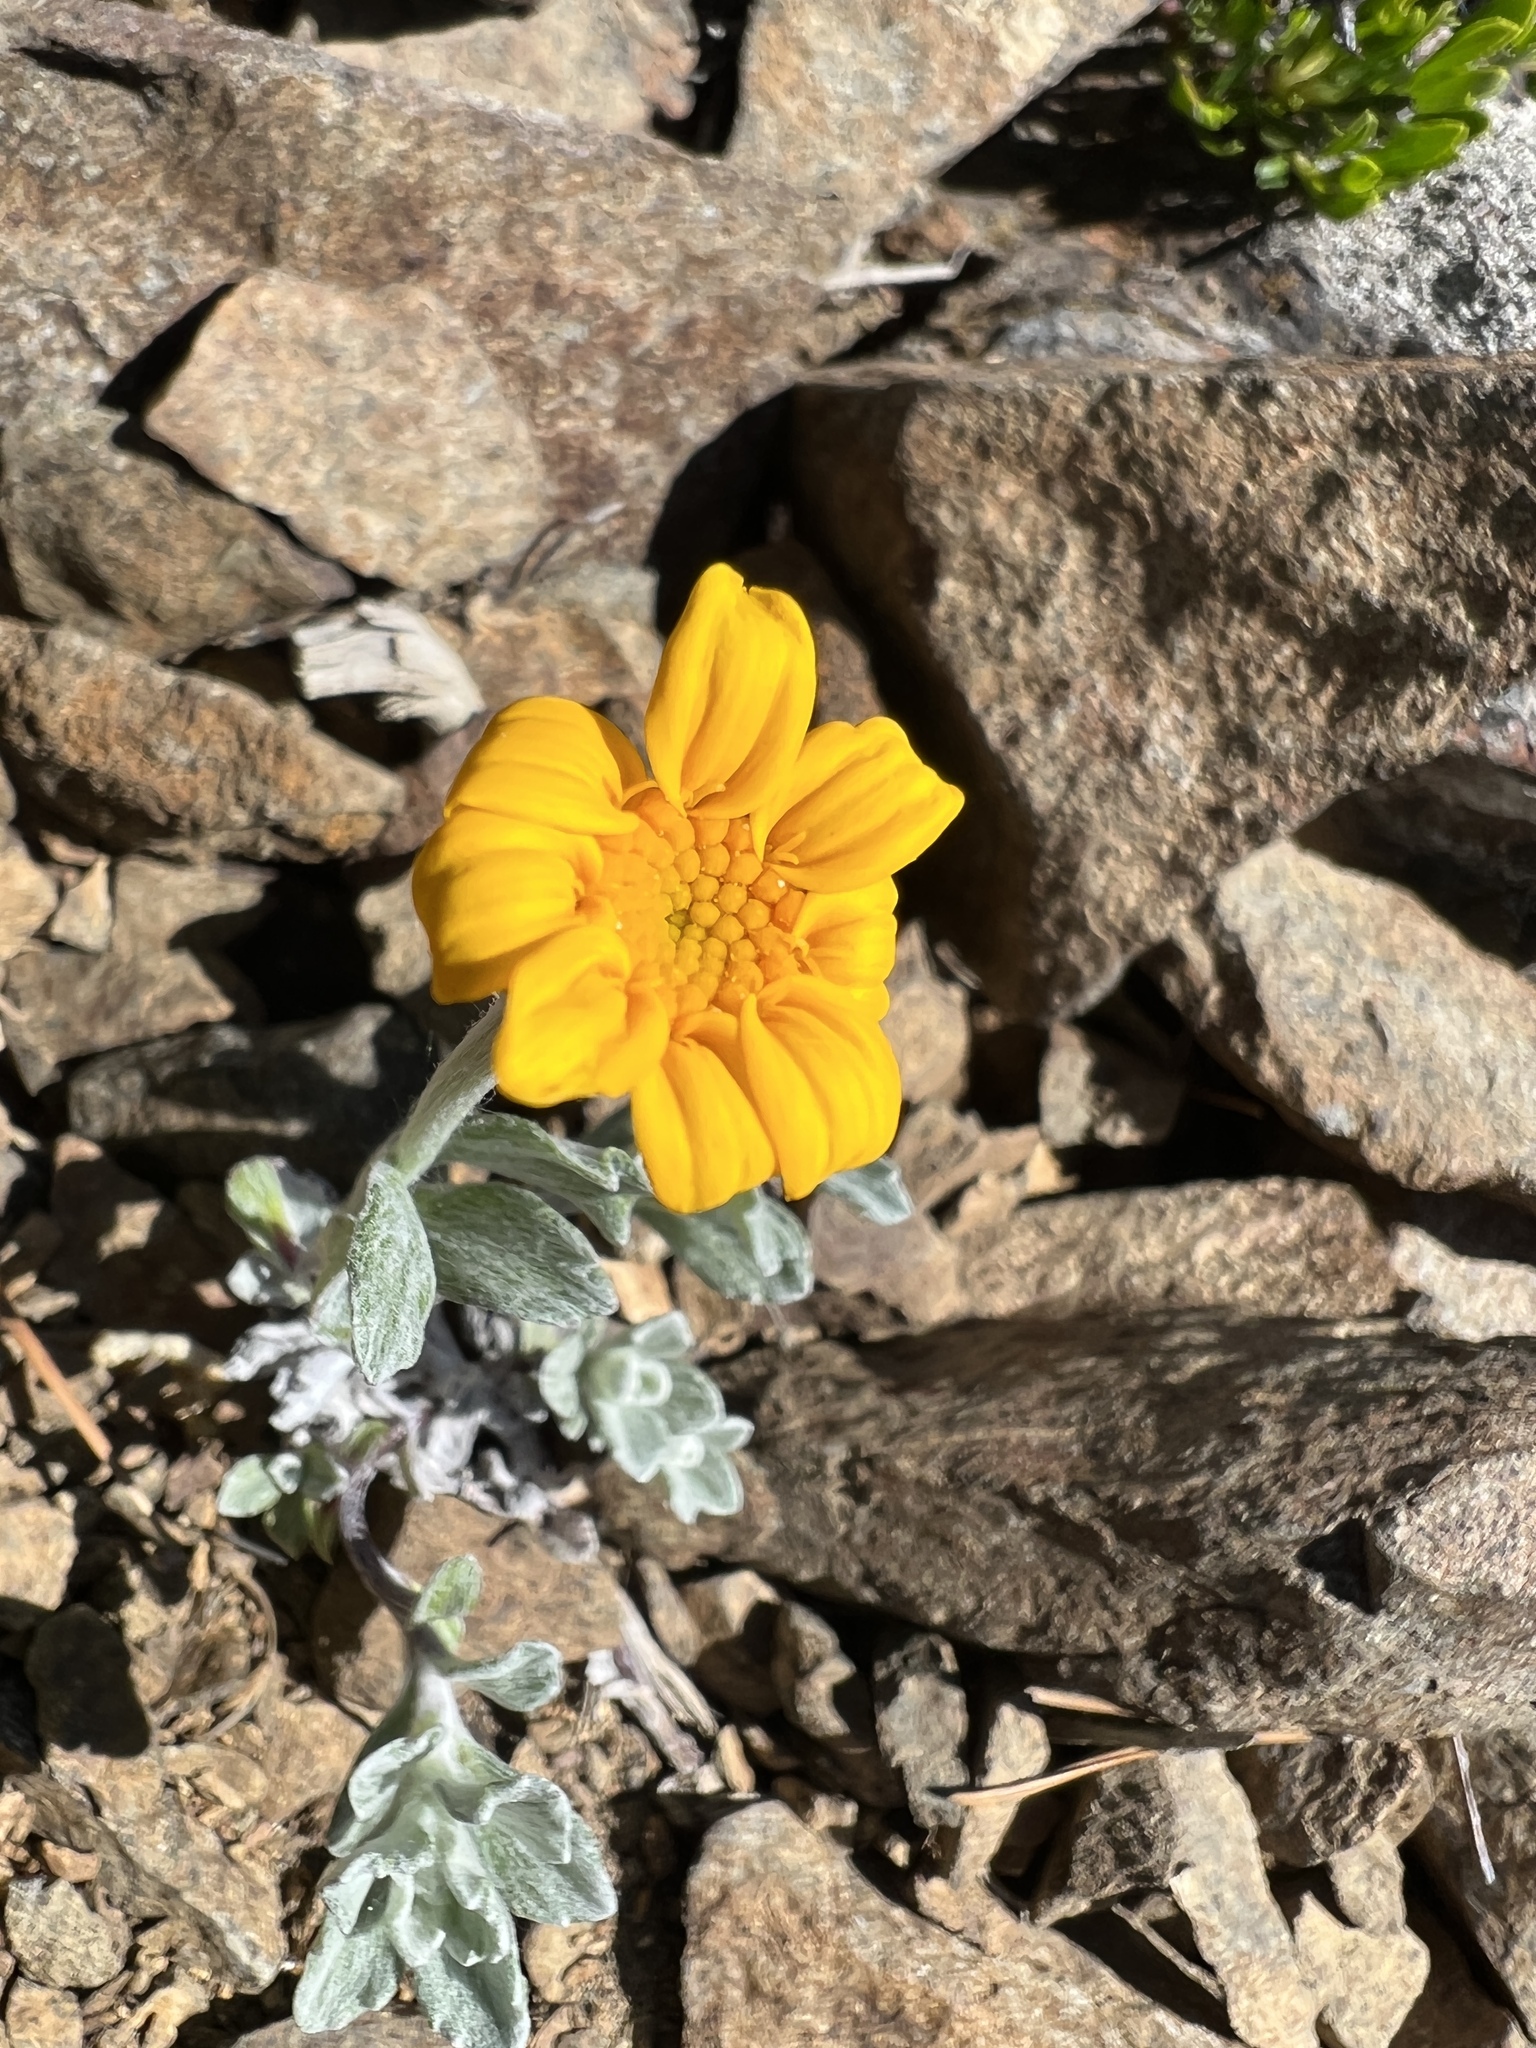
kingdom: Plantae
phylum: Tracheophyta
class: Magnoliopsida
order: Asterales
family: Asteraceae
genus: Eriophyllum
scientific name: Eriophyllum lanatum
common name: Common woolly-sunflower
